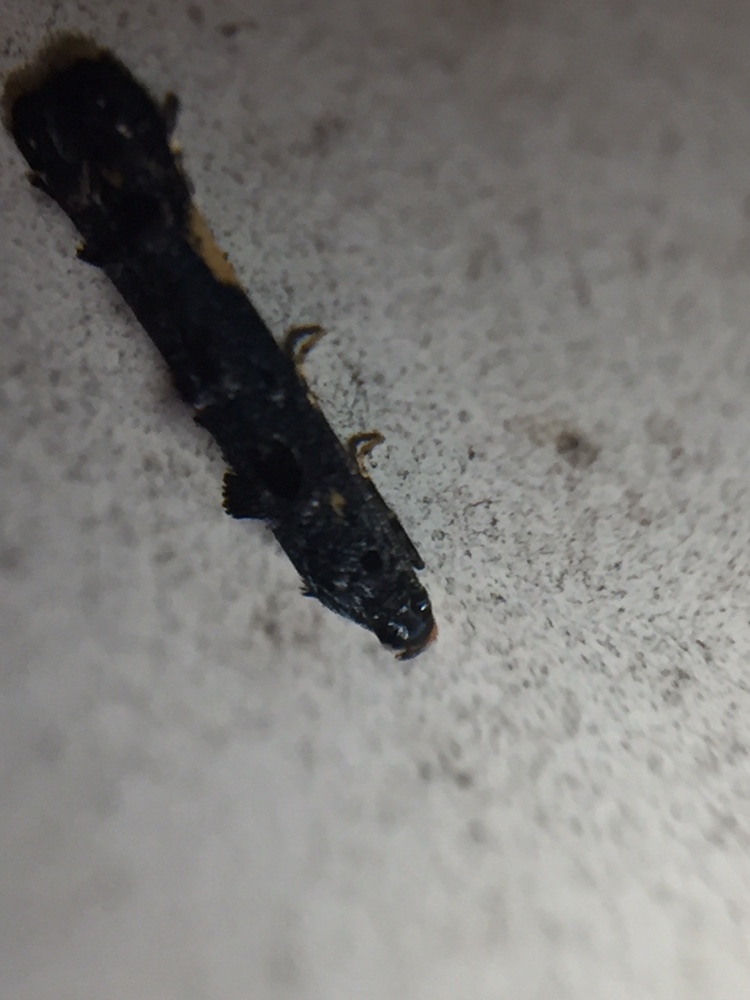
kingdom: Animalia
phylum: Arthropoda
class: Insecta
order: Lepidoptera
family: Elachistidae
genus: Microcolona
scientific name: Microcolona
